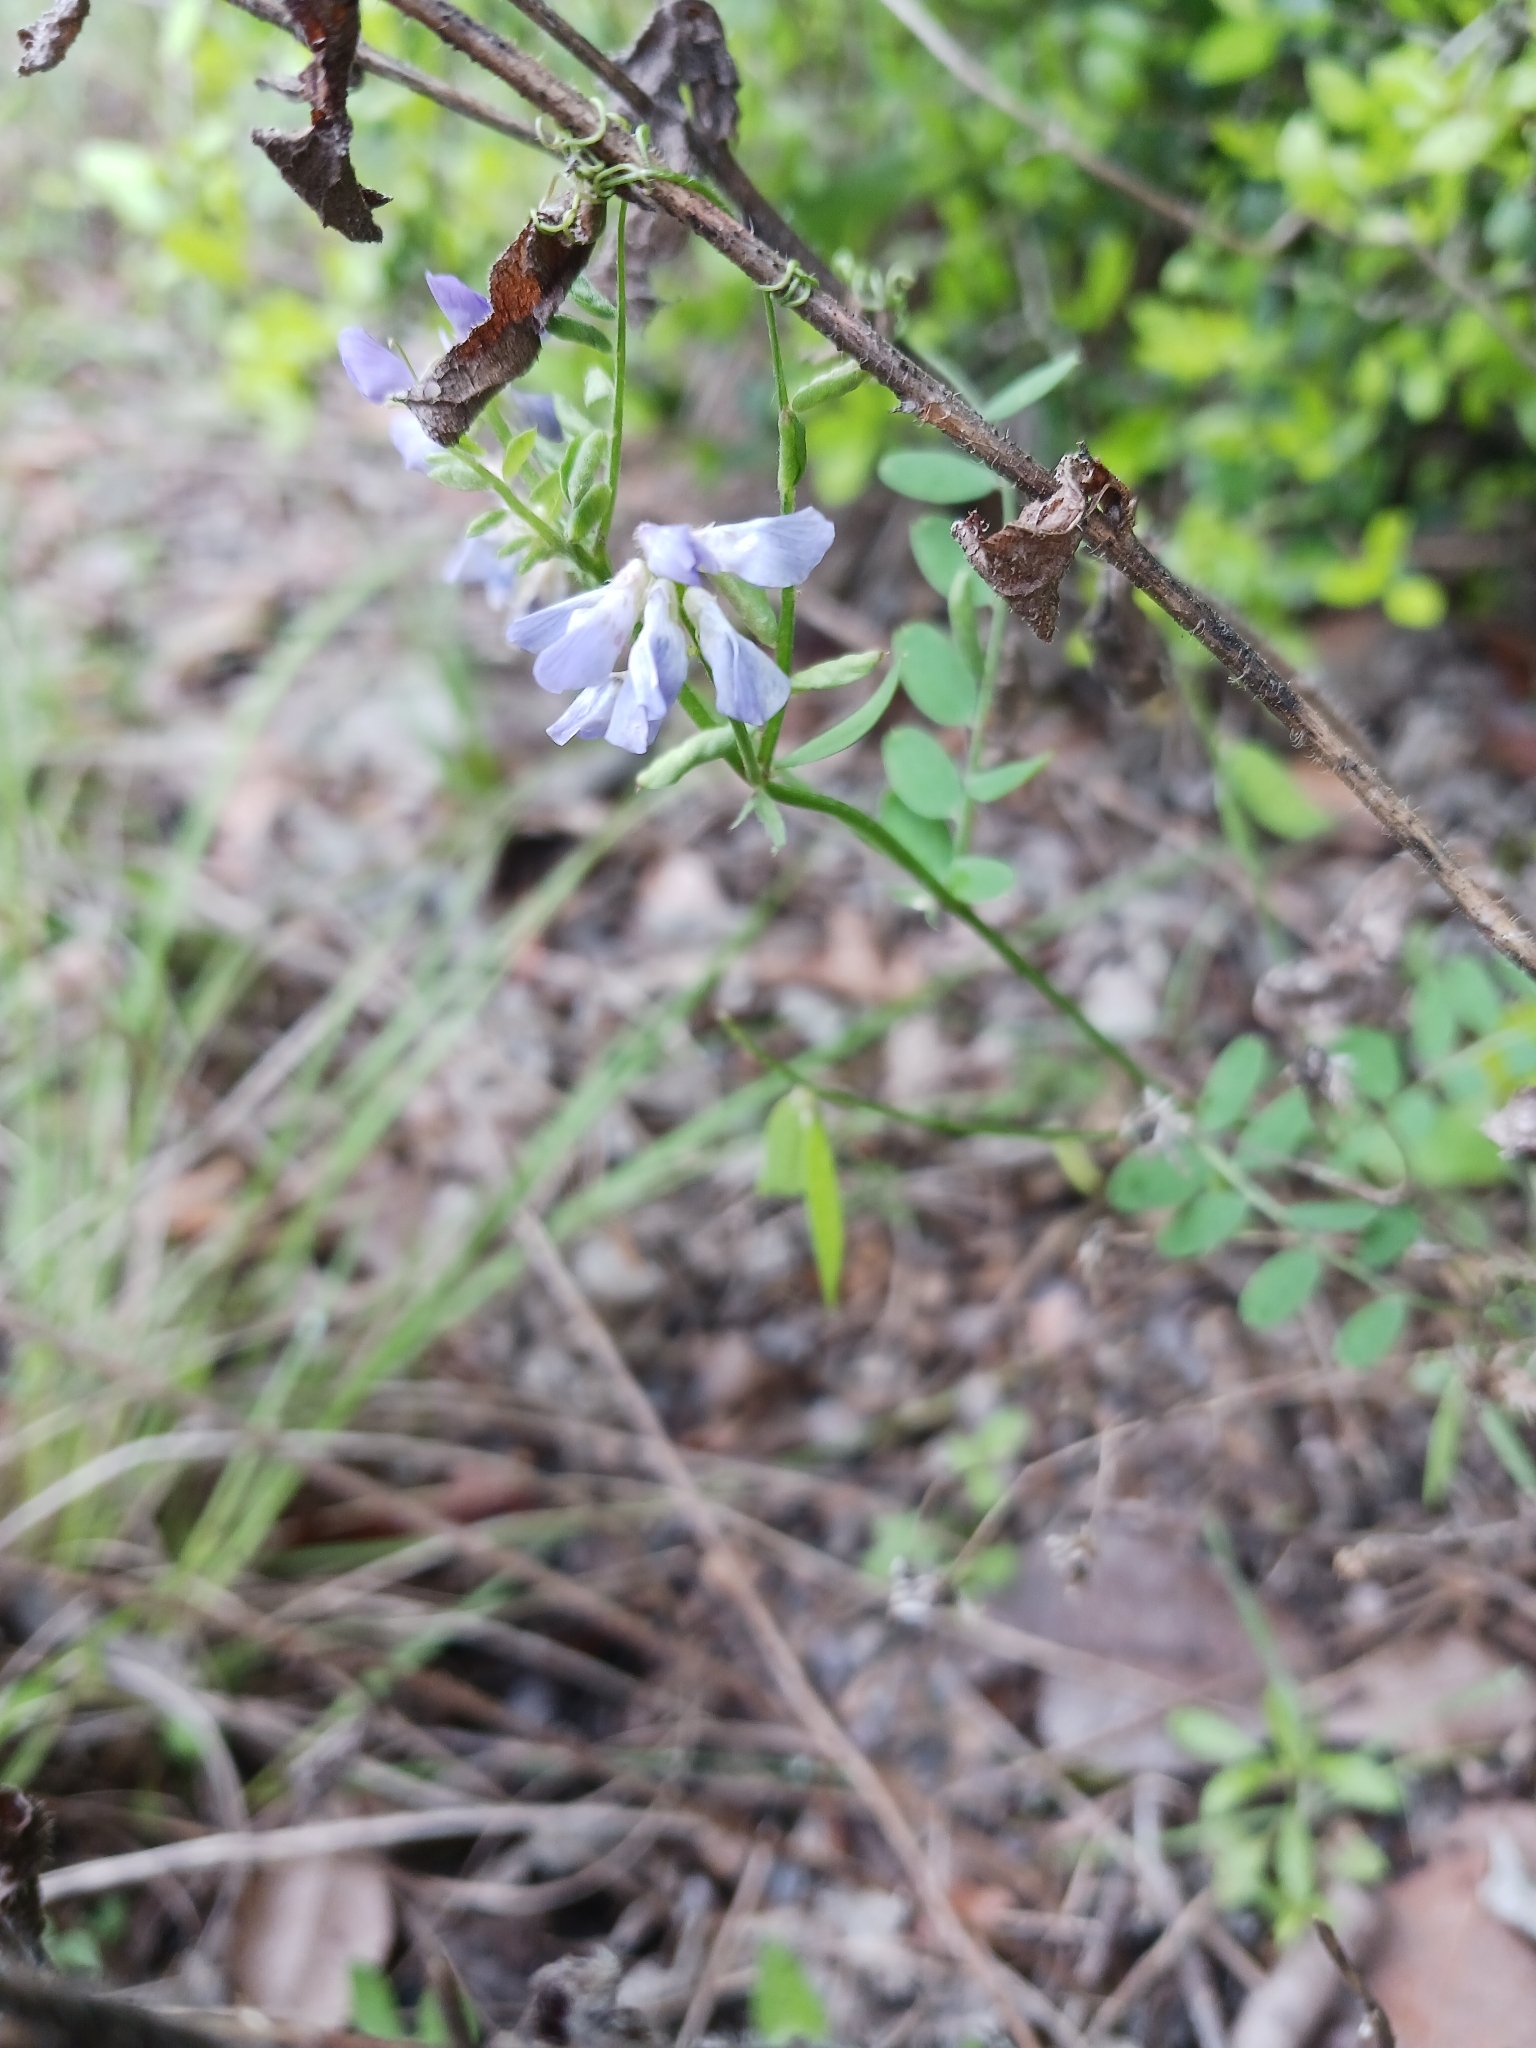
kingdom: Plantae
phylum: Tracheophyta
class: Magnoliopsida
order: Fabales
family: Fabaceae
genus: Vicia
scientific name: Vicia ludoviciana
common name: Louisiana vetch
